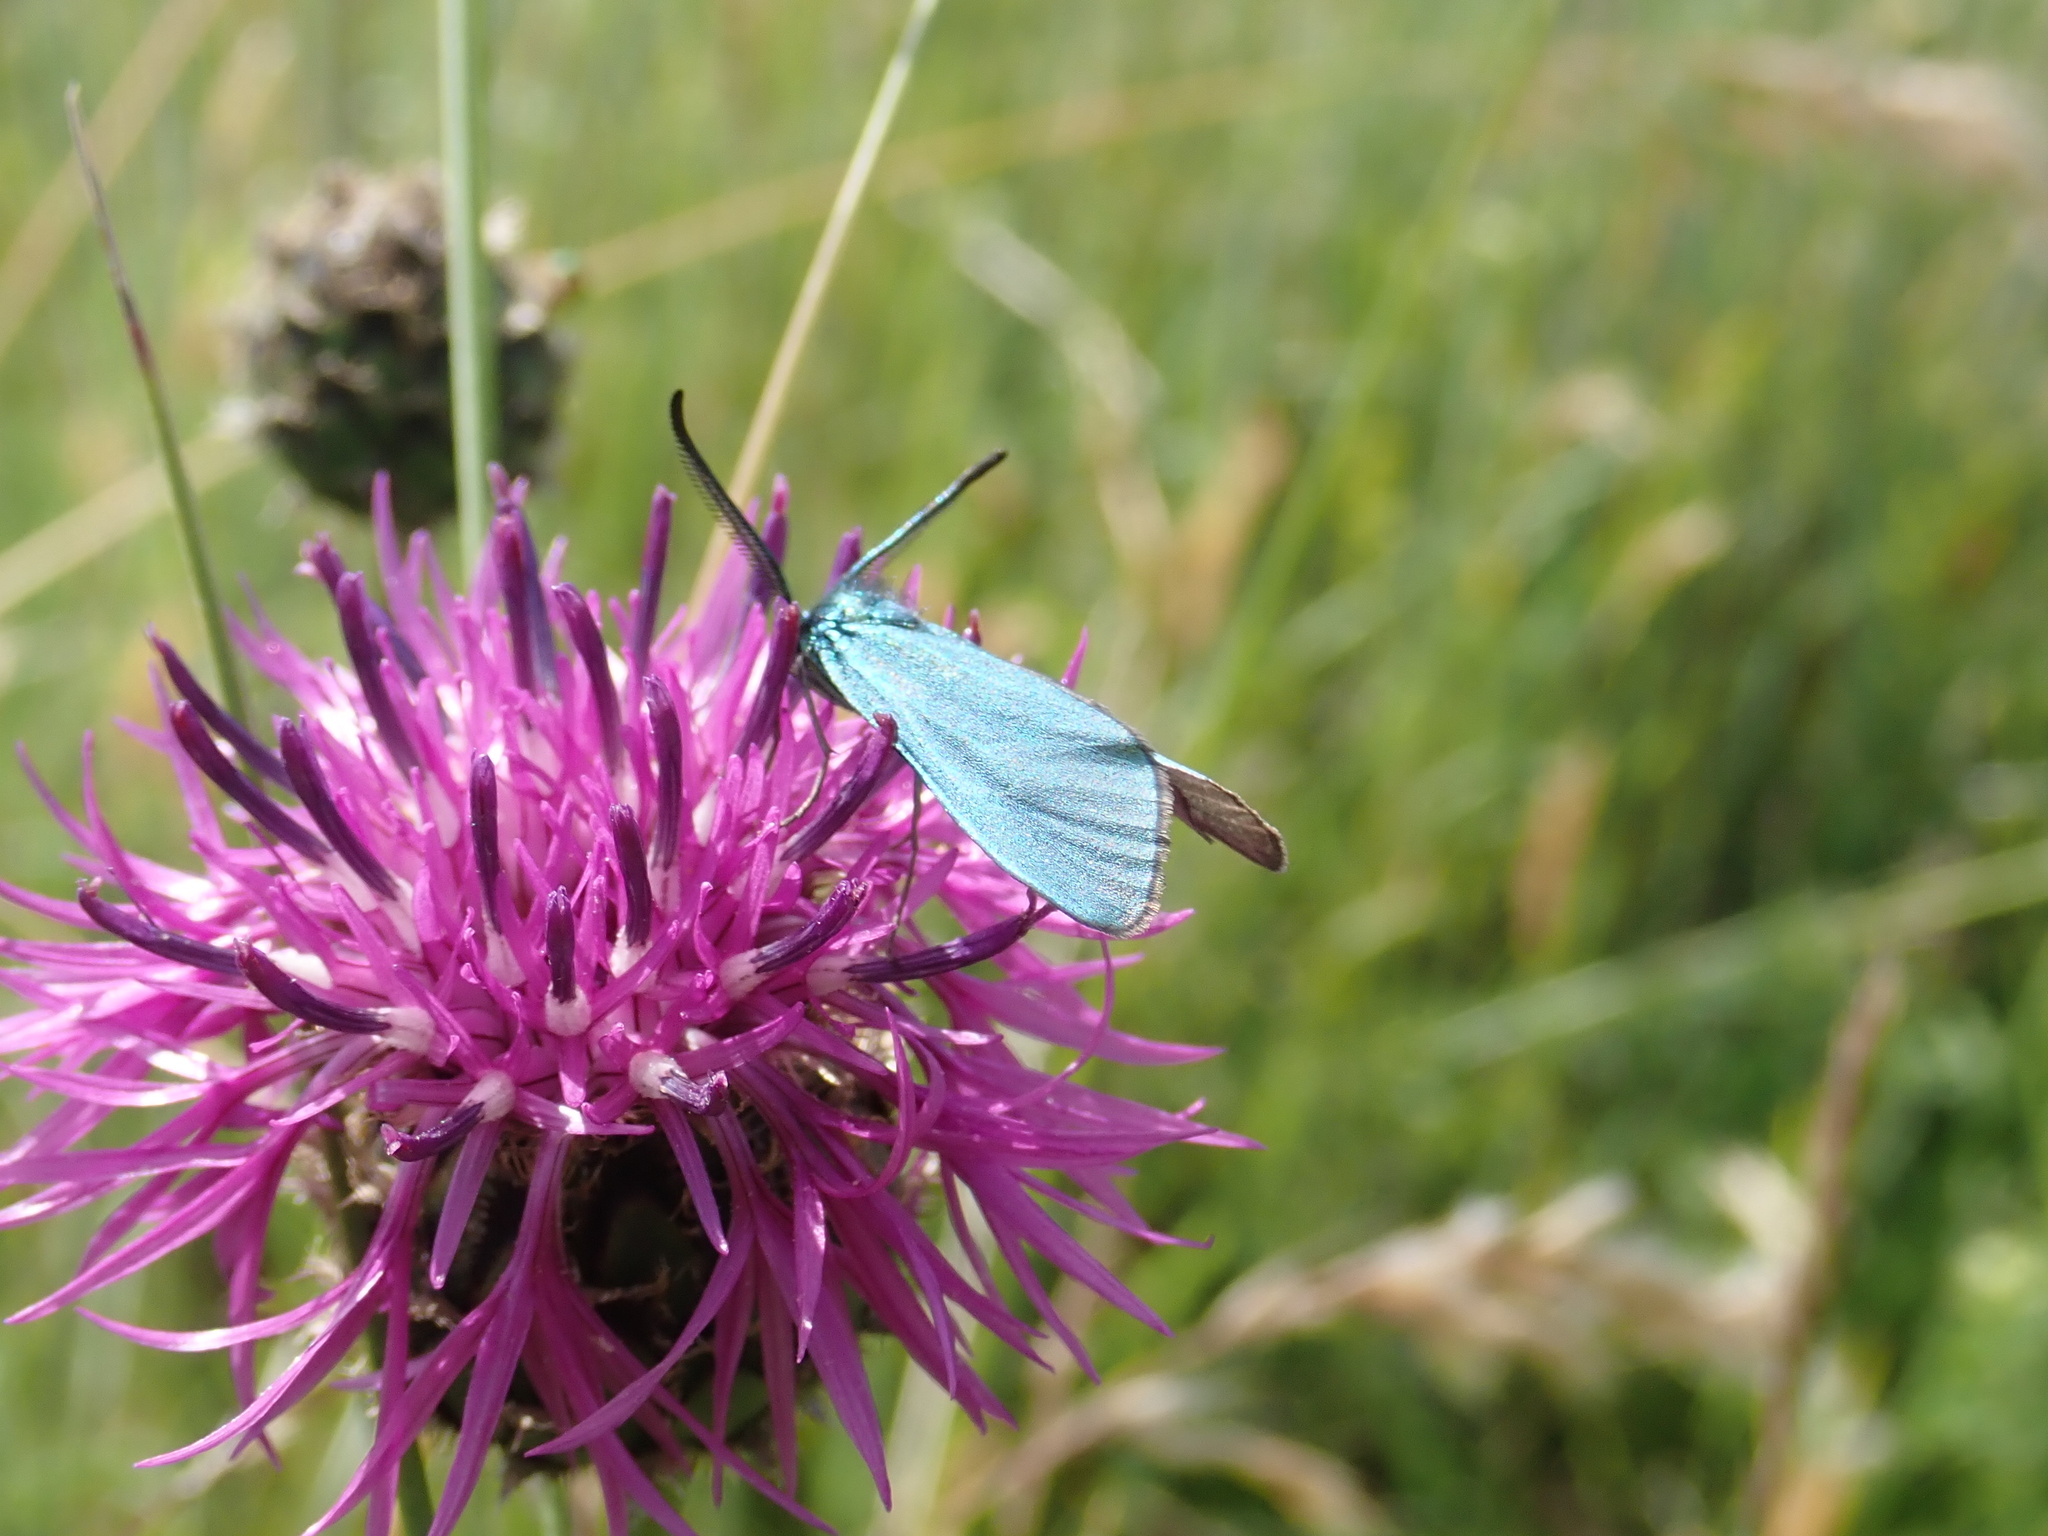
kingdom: Animalia
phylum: Arthropoda
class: Insecta
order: Lepidoptera
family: Zygaenidae
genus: Adscita
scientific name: Adscita statices
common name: Forester
